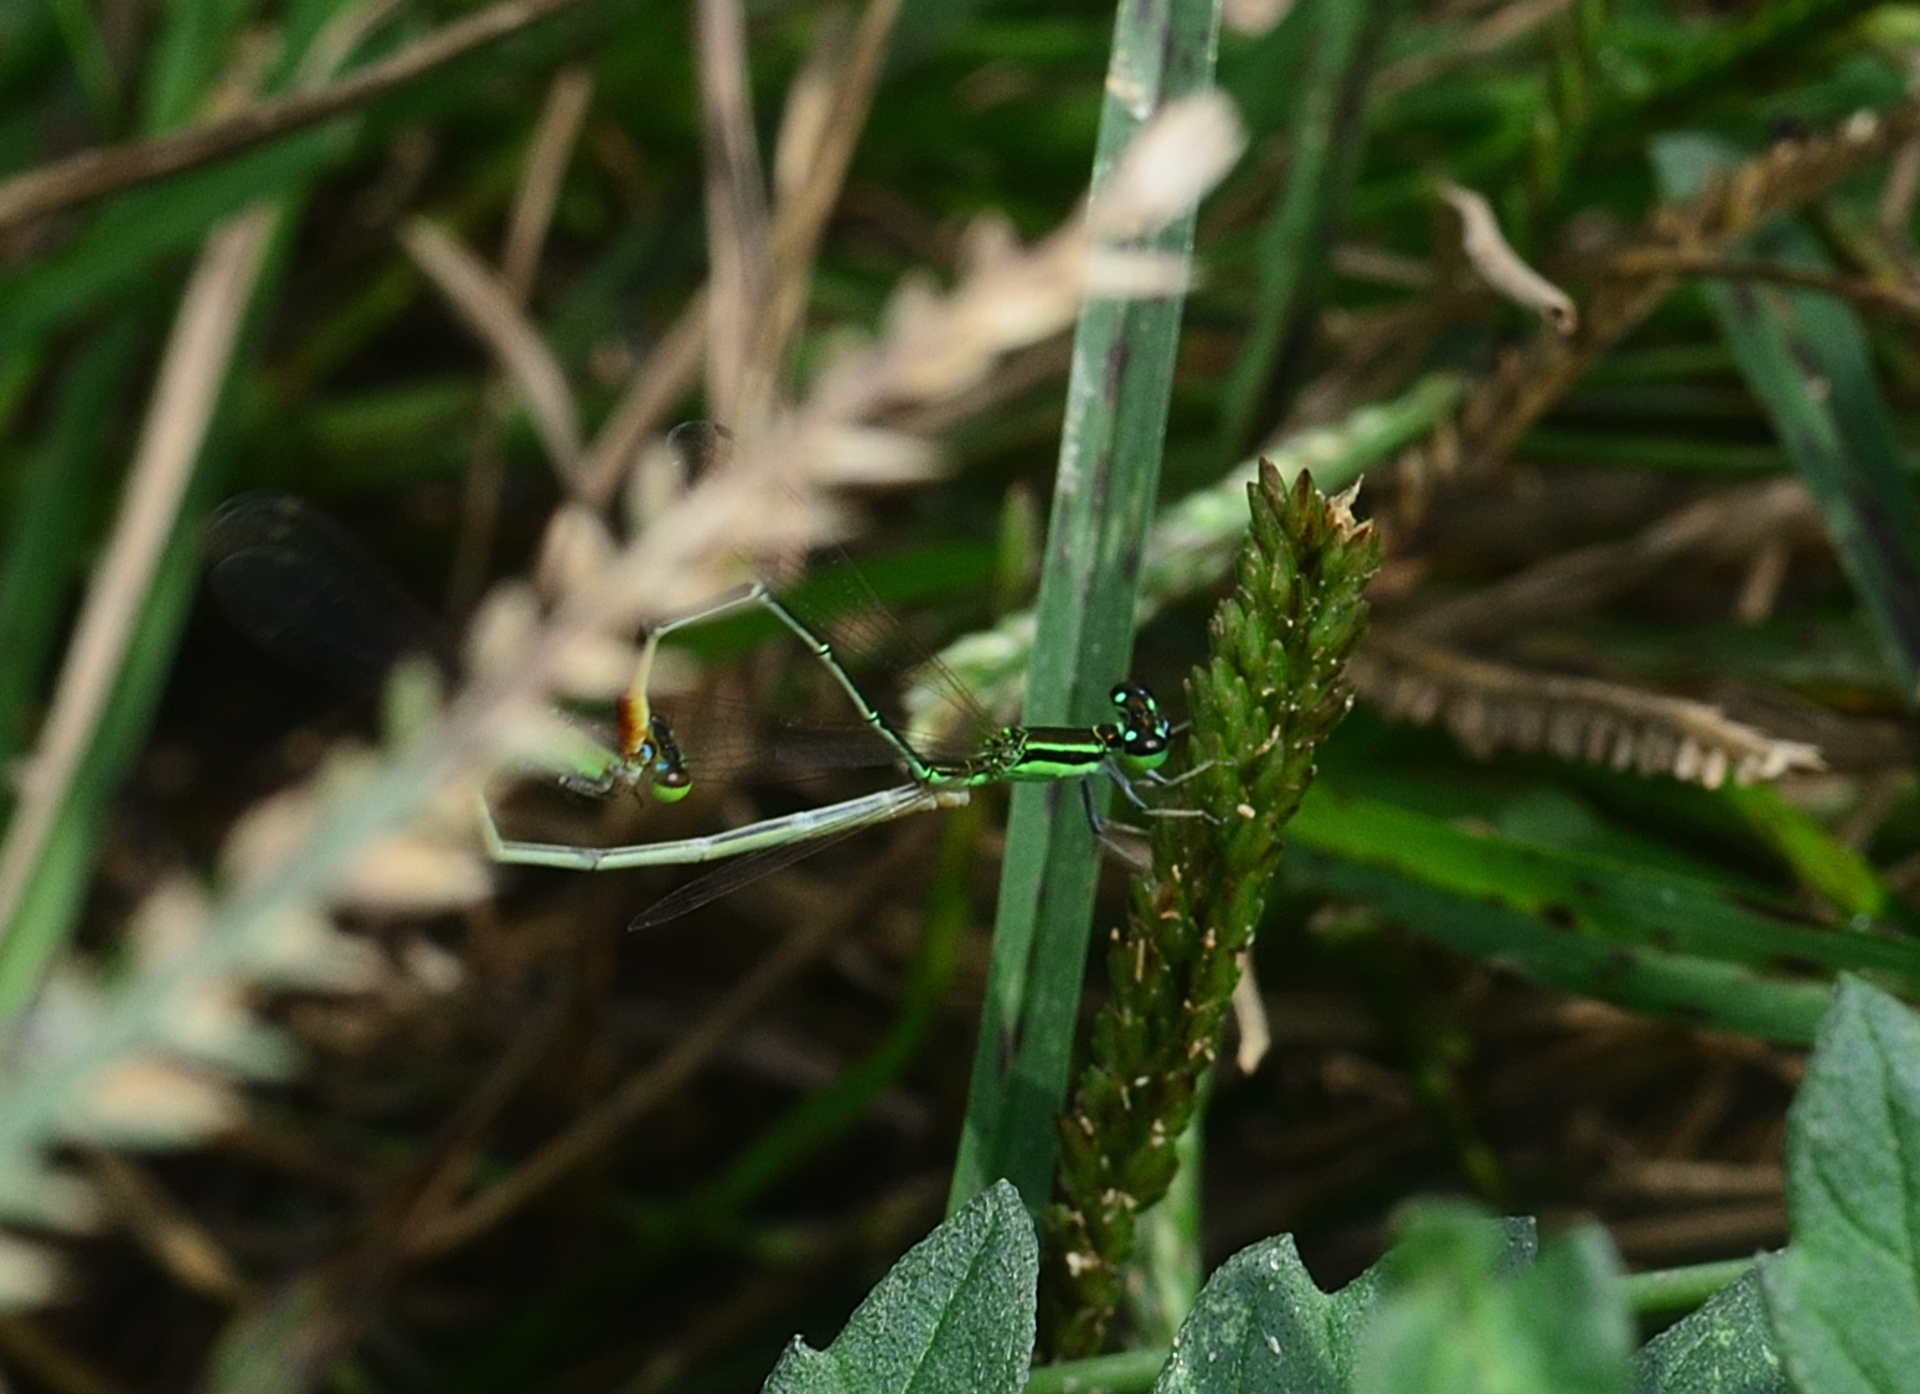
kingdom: Animalia
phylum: Arthropoda
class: Insecta
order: Odonata
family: Coenagrionidae
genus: Agriocnemis
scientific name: Agriocnemis pygmaea
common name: Pygmy wisp
